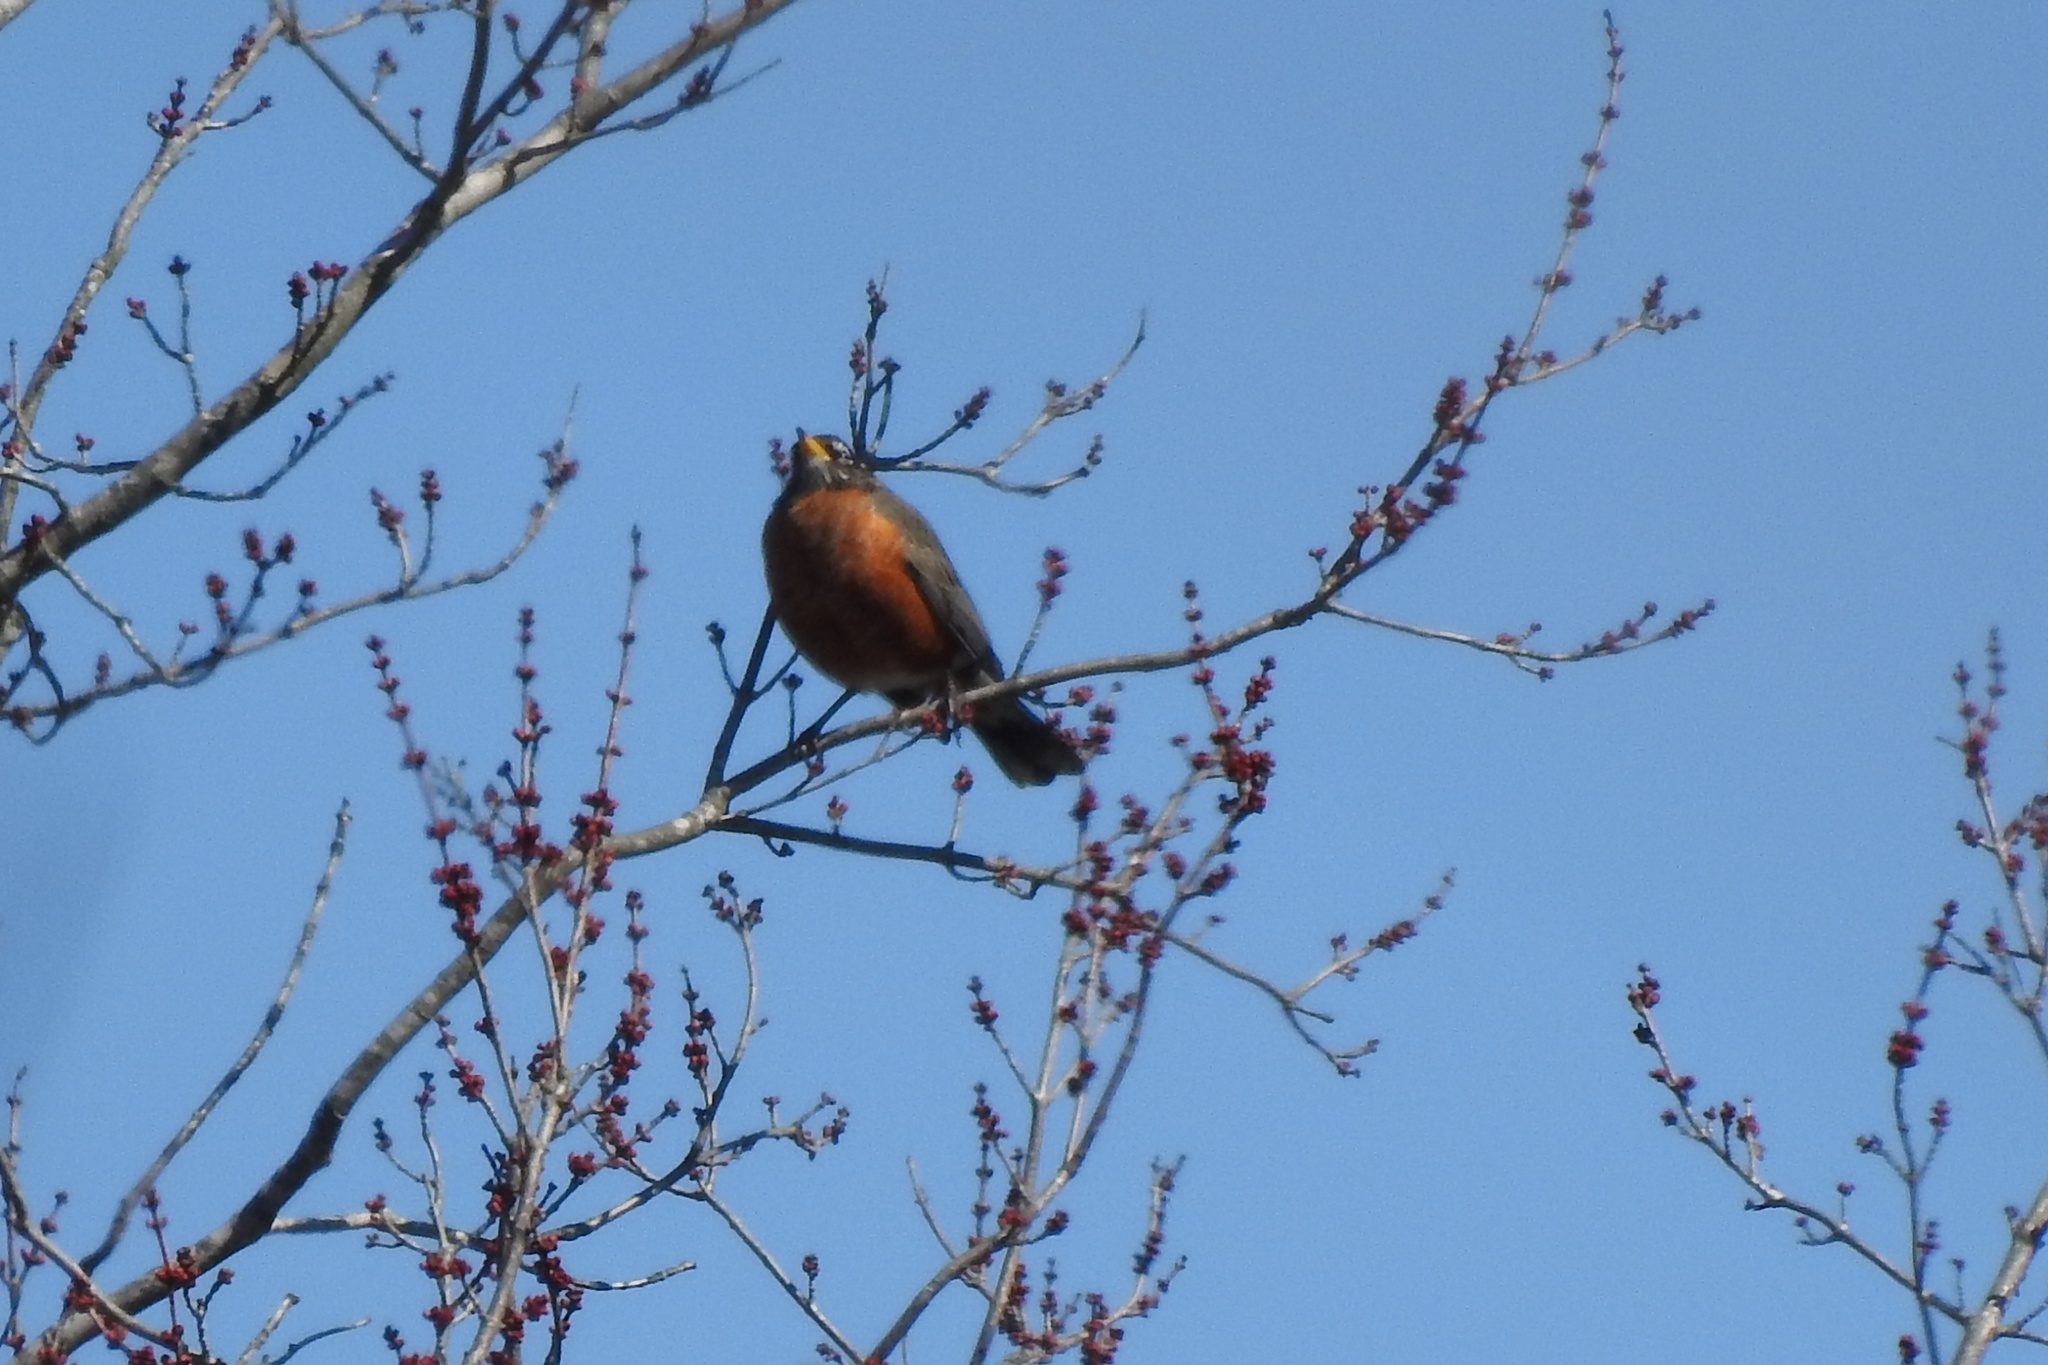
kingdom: Animalia
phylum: Chordata
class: Aves
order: Passeriformes
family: Turdidae
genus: Turdus
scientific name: Turdus migratorius
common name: American robin
